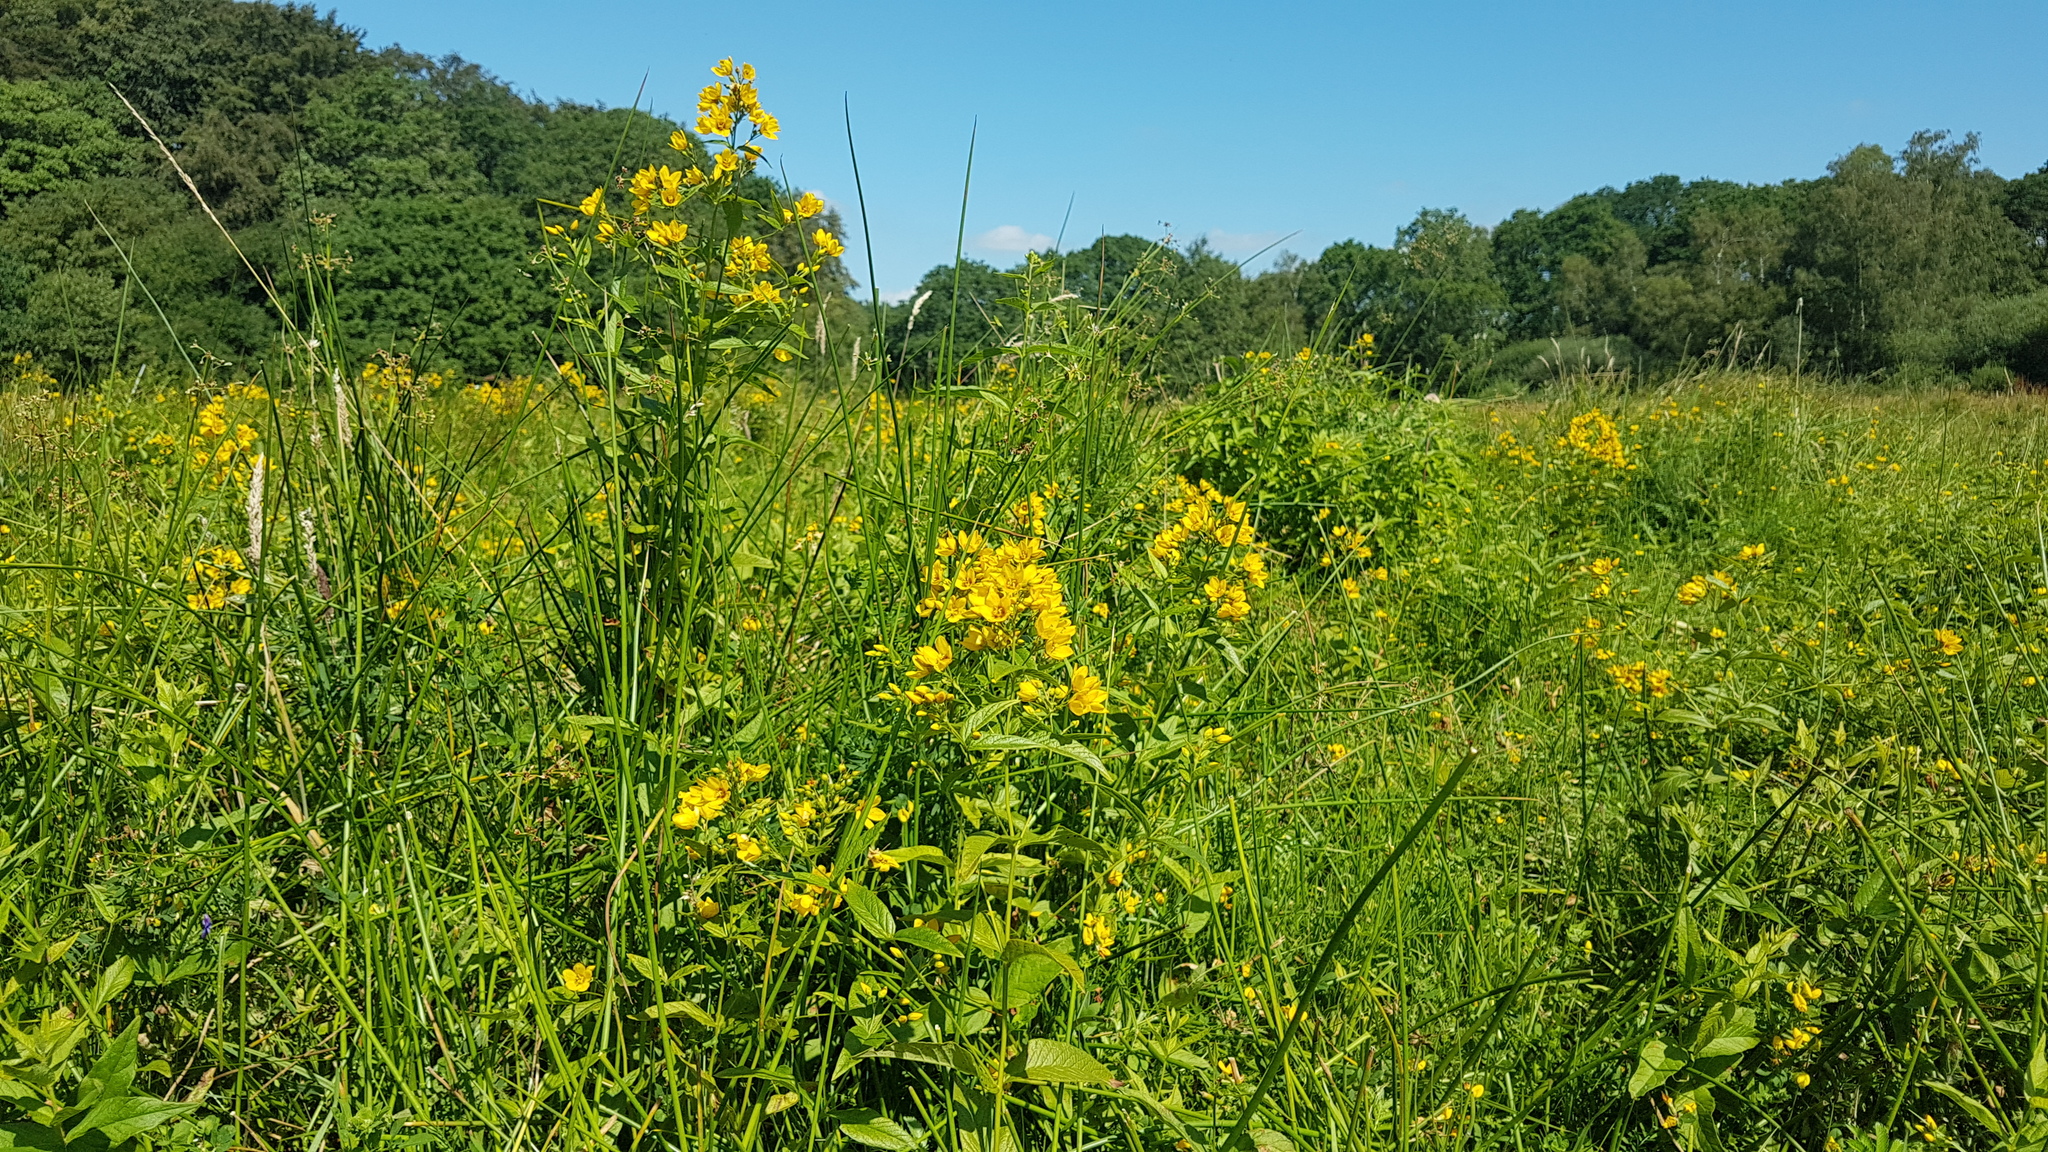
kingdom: Plantae
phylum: Tracheophyta
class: Magnoliopsida
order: Ericales
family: Primulaceae
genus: Lysimachia
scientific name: Lysimachia vulgaris
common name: Yellow loosestrife
